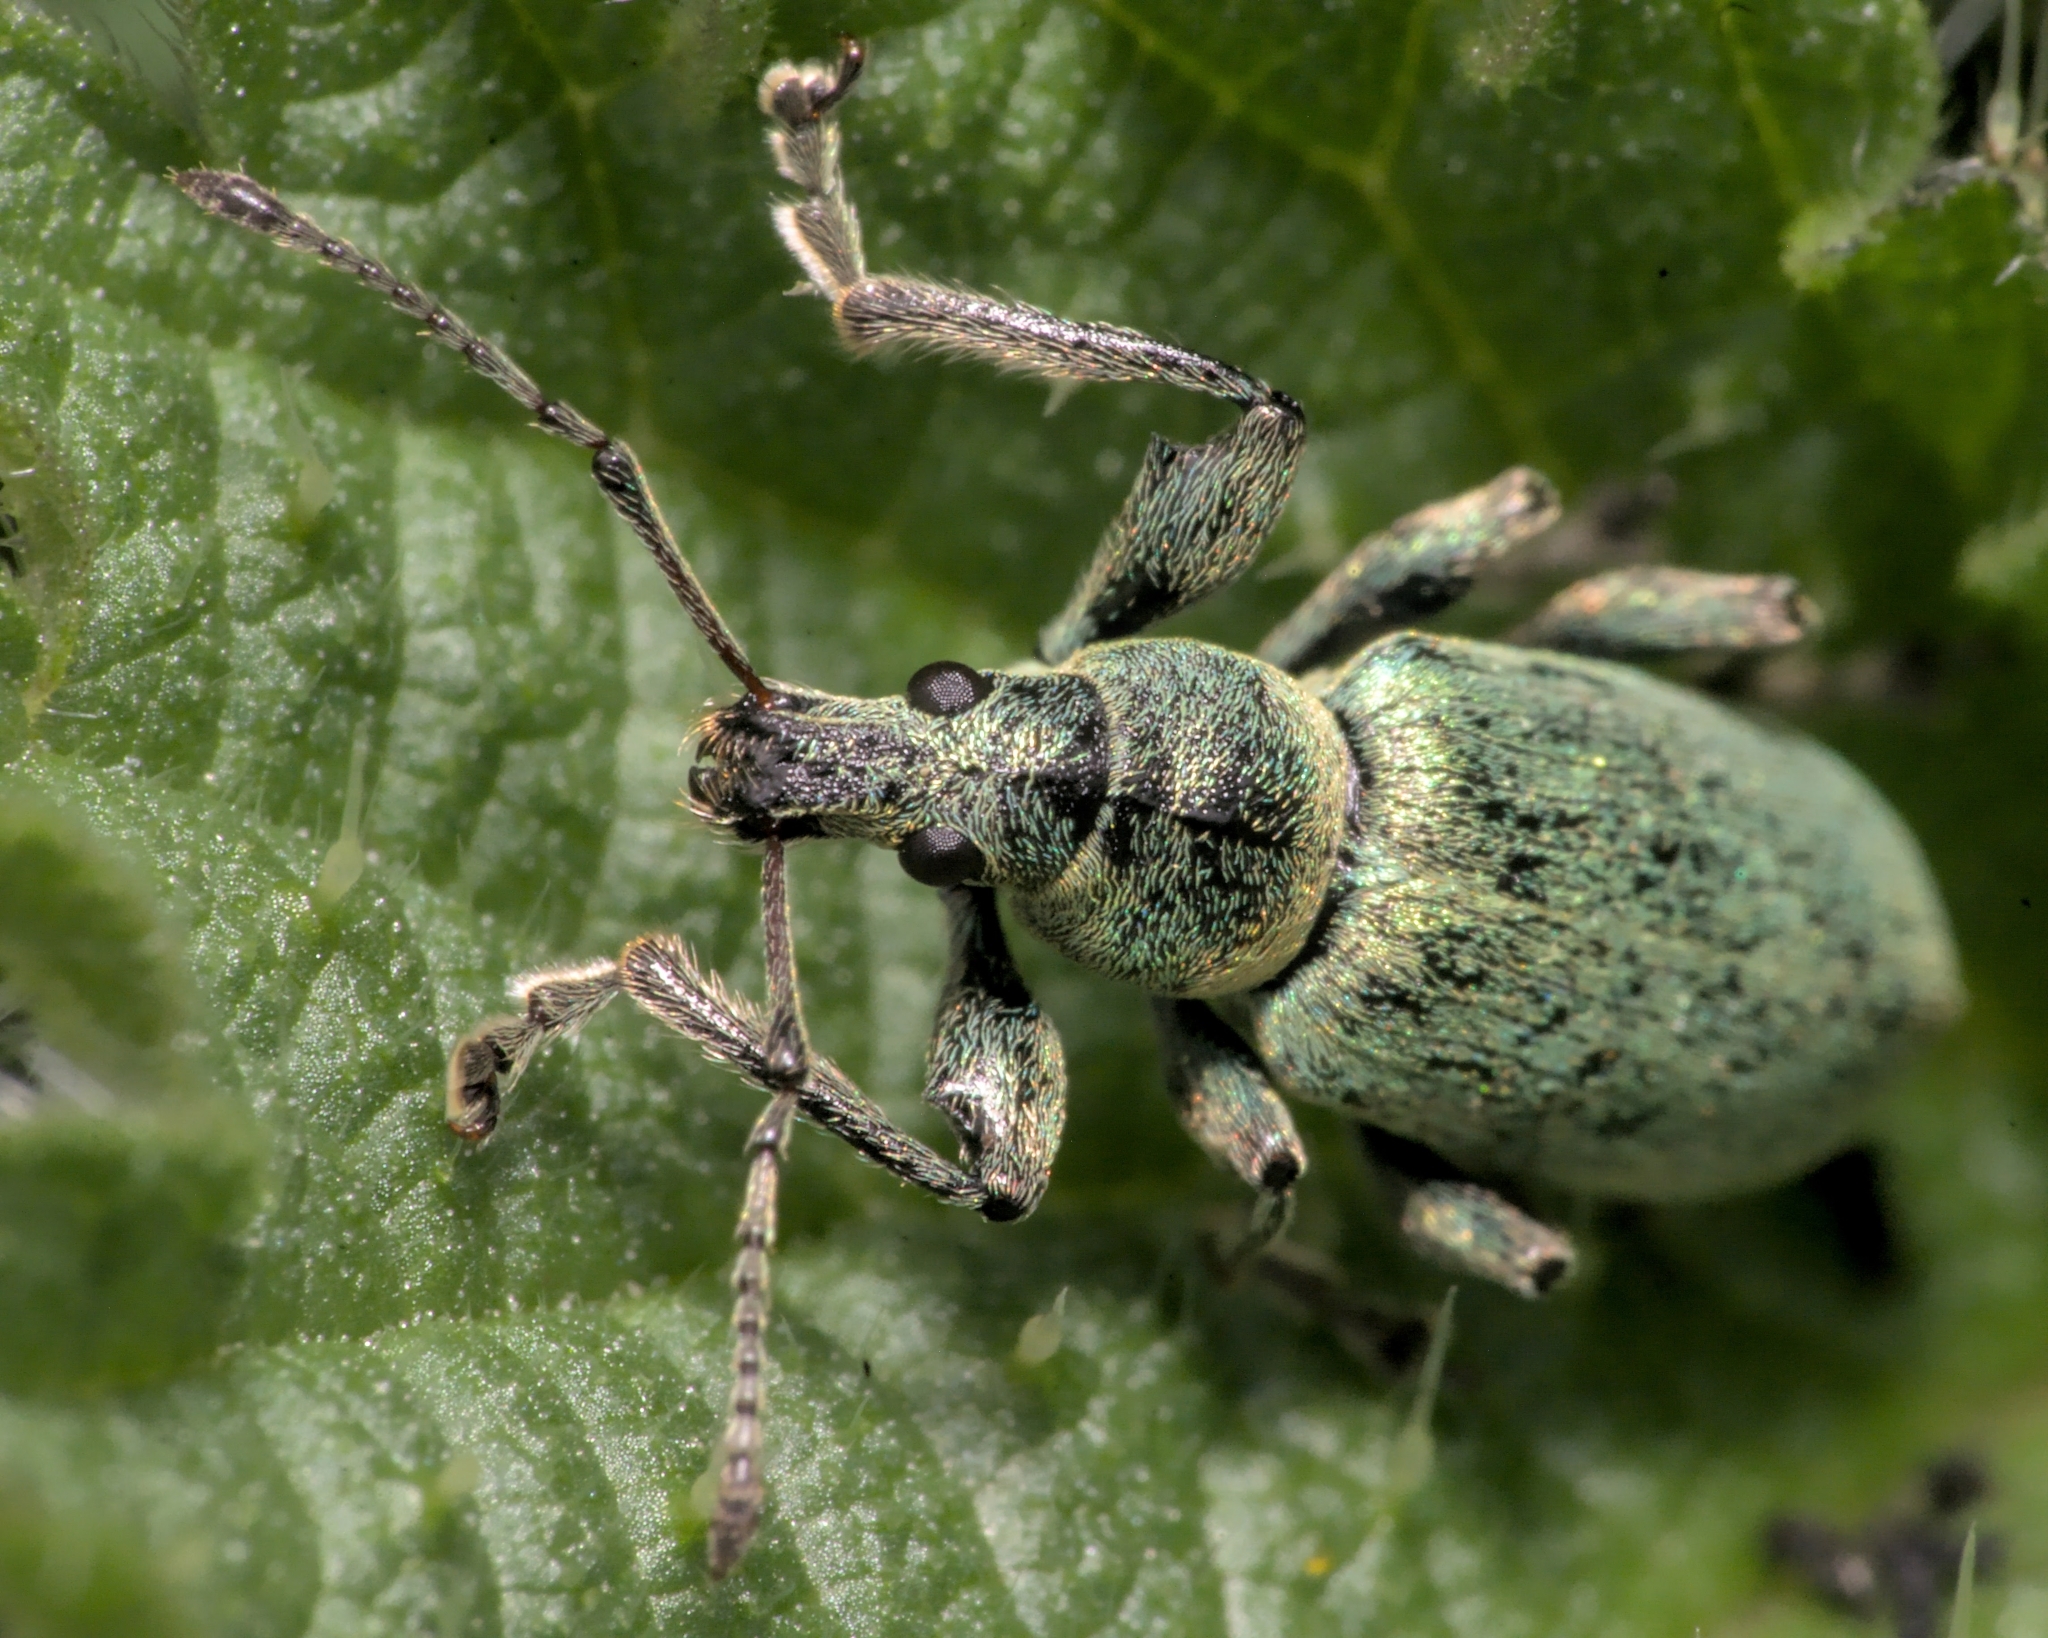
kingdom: Animalia
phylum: Arthropoda
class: Insecta
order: Coleoptera
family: Curculionidae
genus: Phyllobius
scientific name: Phyllobius pomaceus
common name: Green nettle weevil
